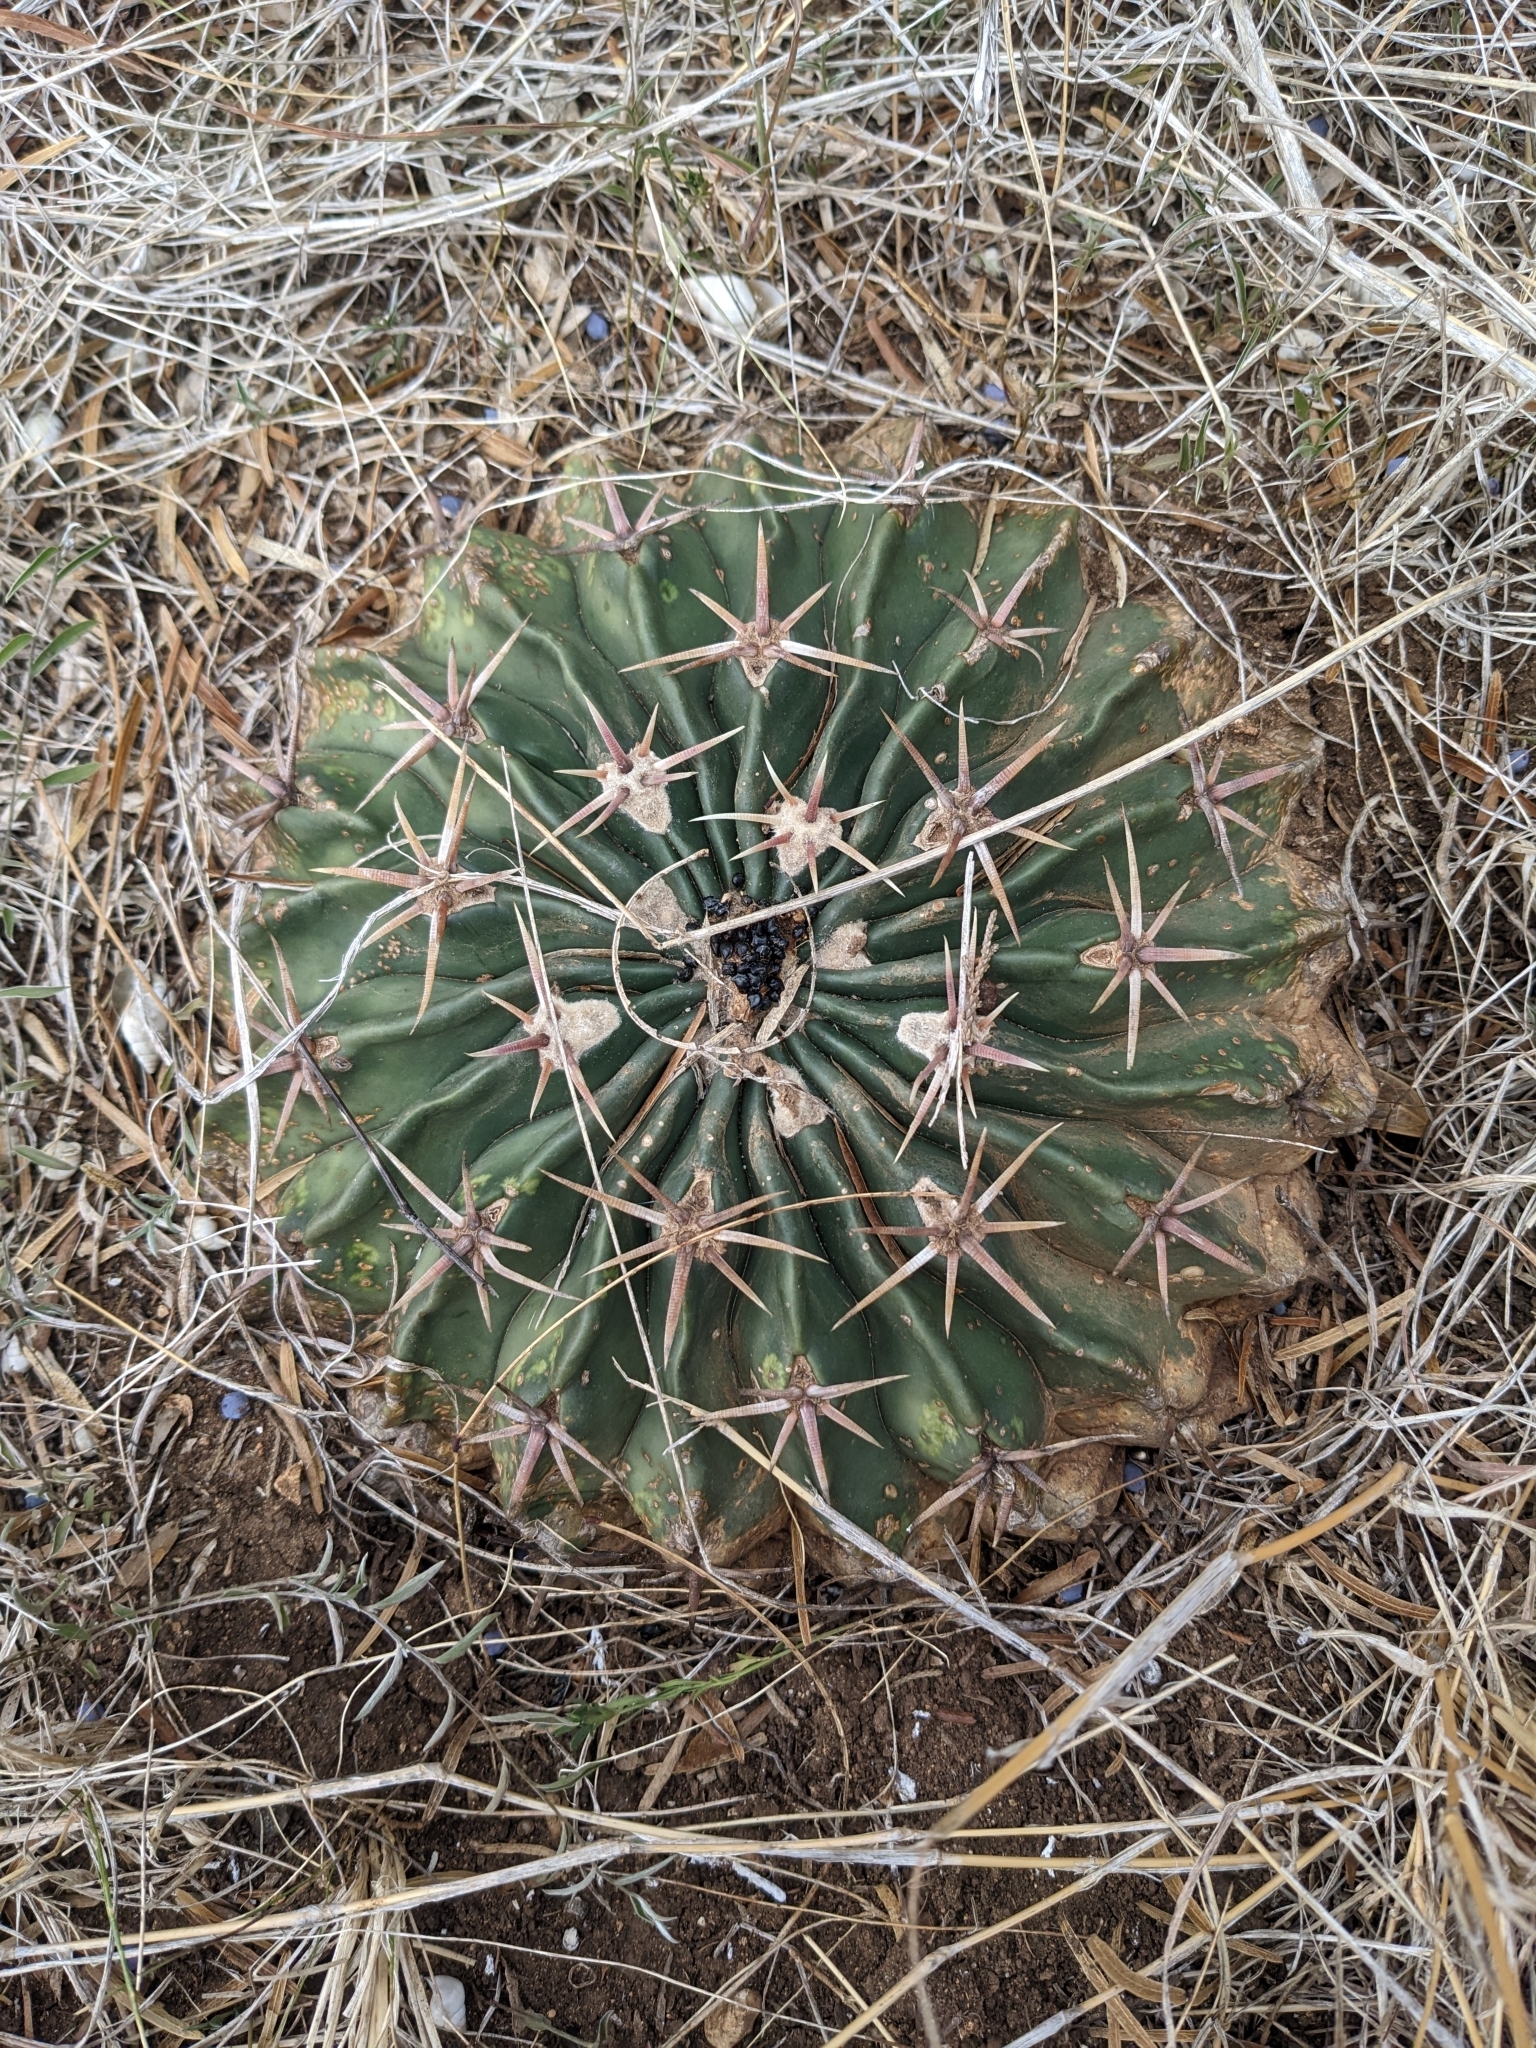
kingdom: Plantae
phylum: Tracheophyta
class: Magnoliopsida
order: Caryophyllales
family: Cactaceae
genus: Echinocactus
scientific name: Echinocactus texensis
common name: Devil's pincushion
